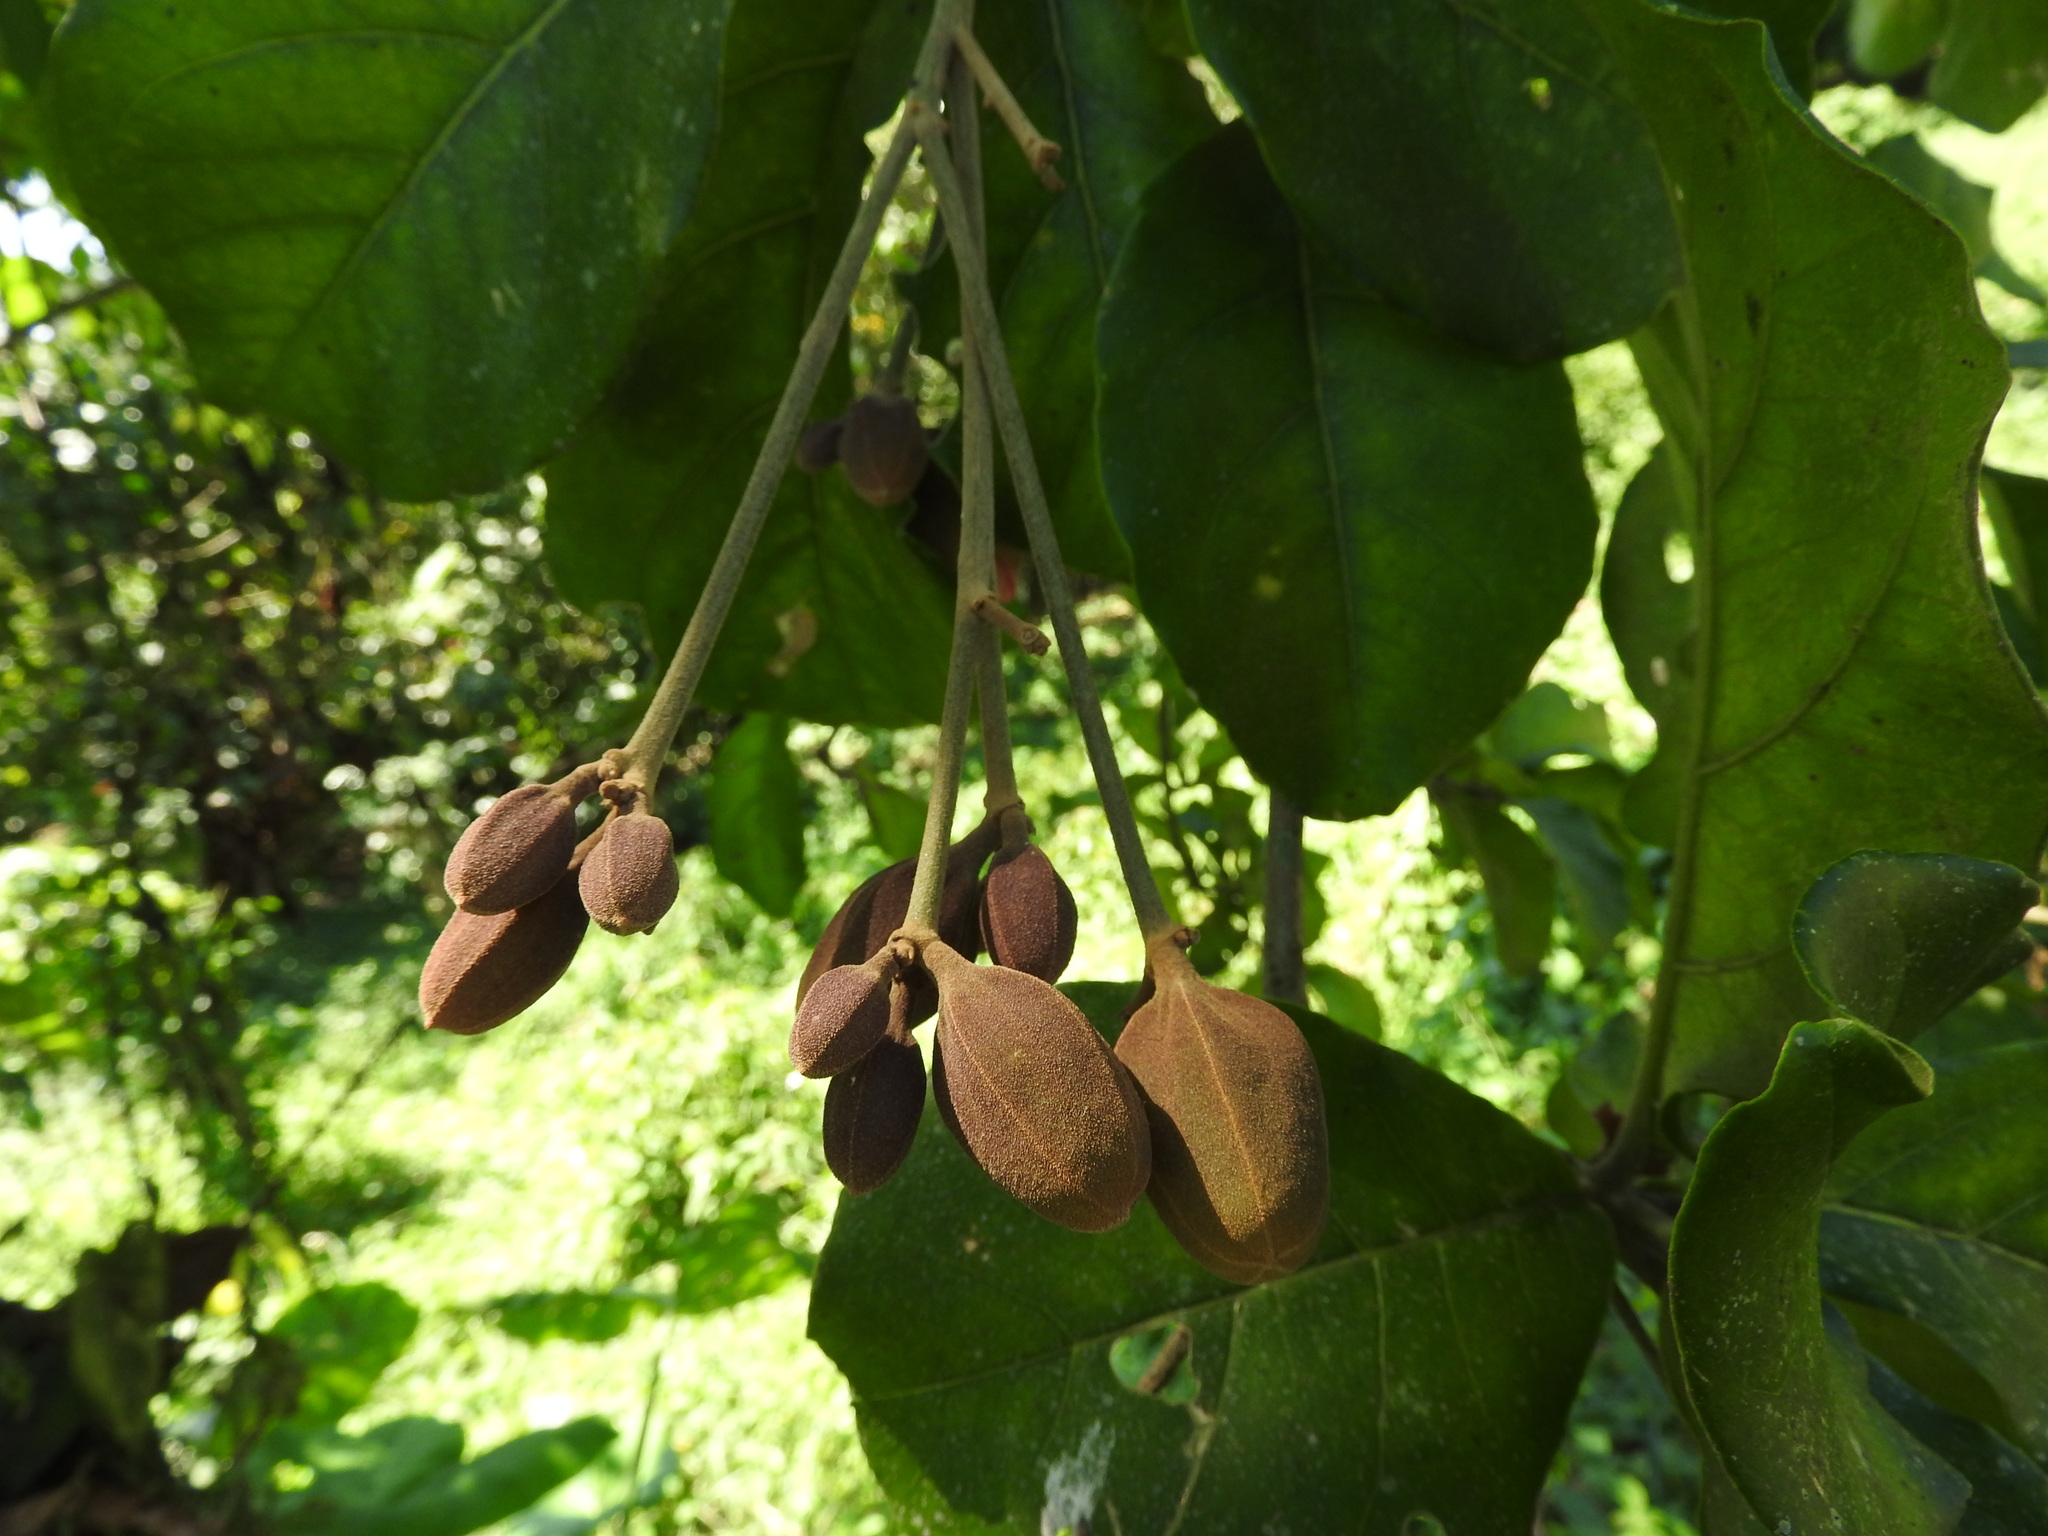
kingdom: Plantae
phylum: Tracheophyta
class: Magnoliopsida
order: Solanales
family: Solanaceae
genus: Juanulloa
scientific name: Juanulloa mexicana
